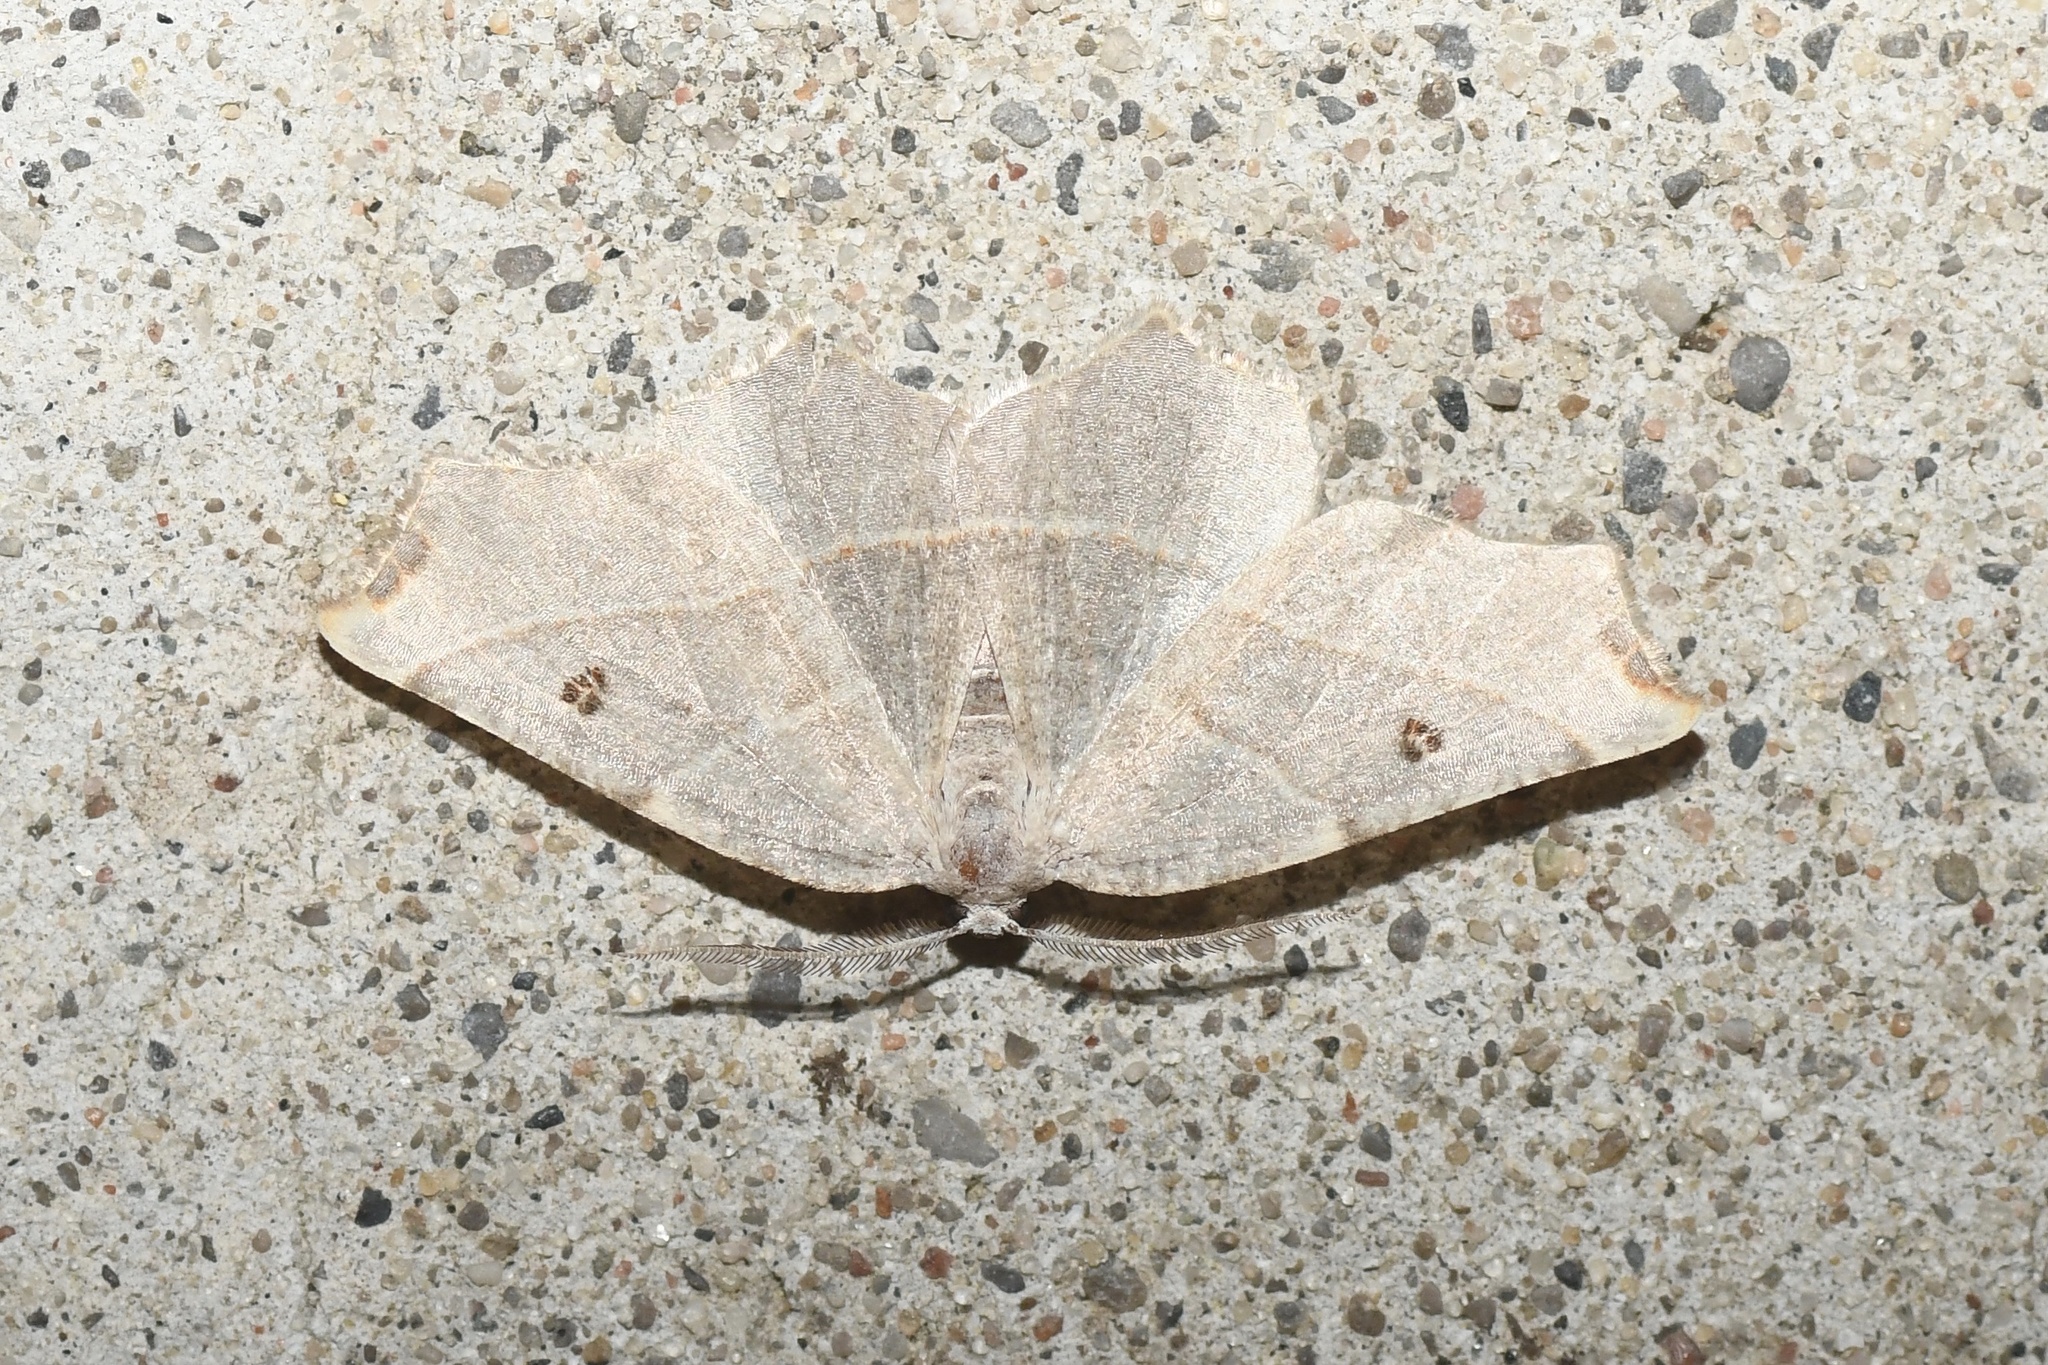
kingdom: Animalia
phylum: Arthropoda
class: Insecta
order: Lepidoptera
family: Geometridae
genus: Metanema
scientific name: Metanema inatomaria
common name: Pale metanema
